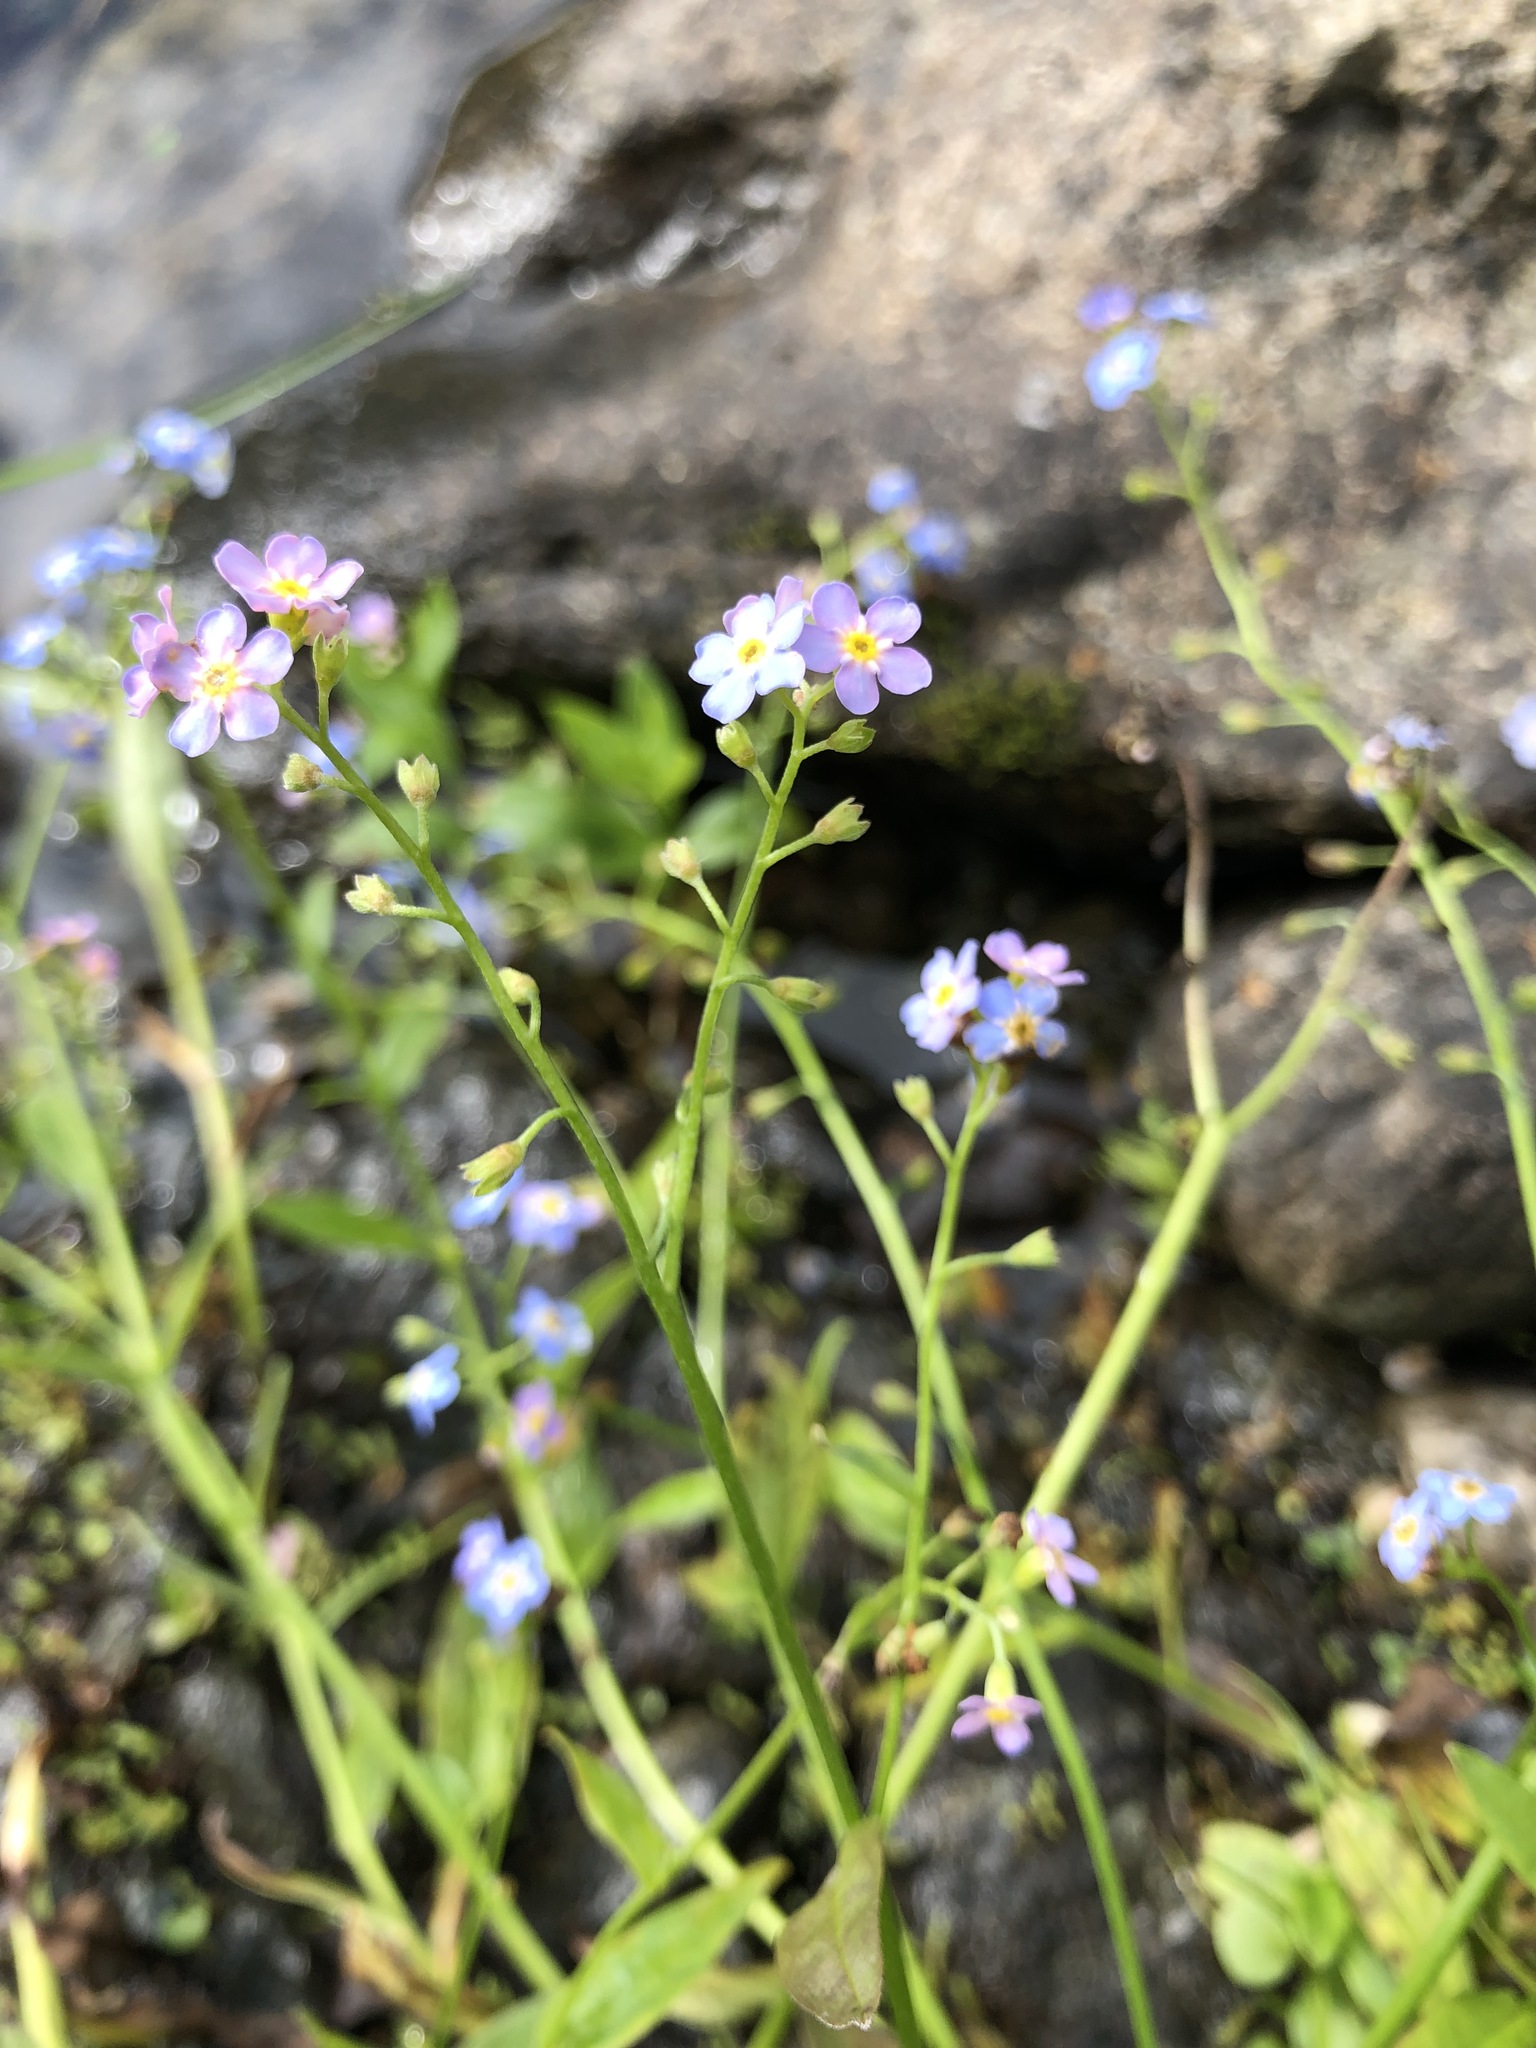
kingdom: Plantae
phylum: Tracheophyta
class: Magnoliopsida
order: Boraginales
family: Boraginaceae
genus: Myosotis
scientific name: Myosotis scorpioides
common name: Water forget-me-not
